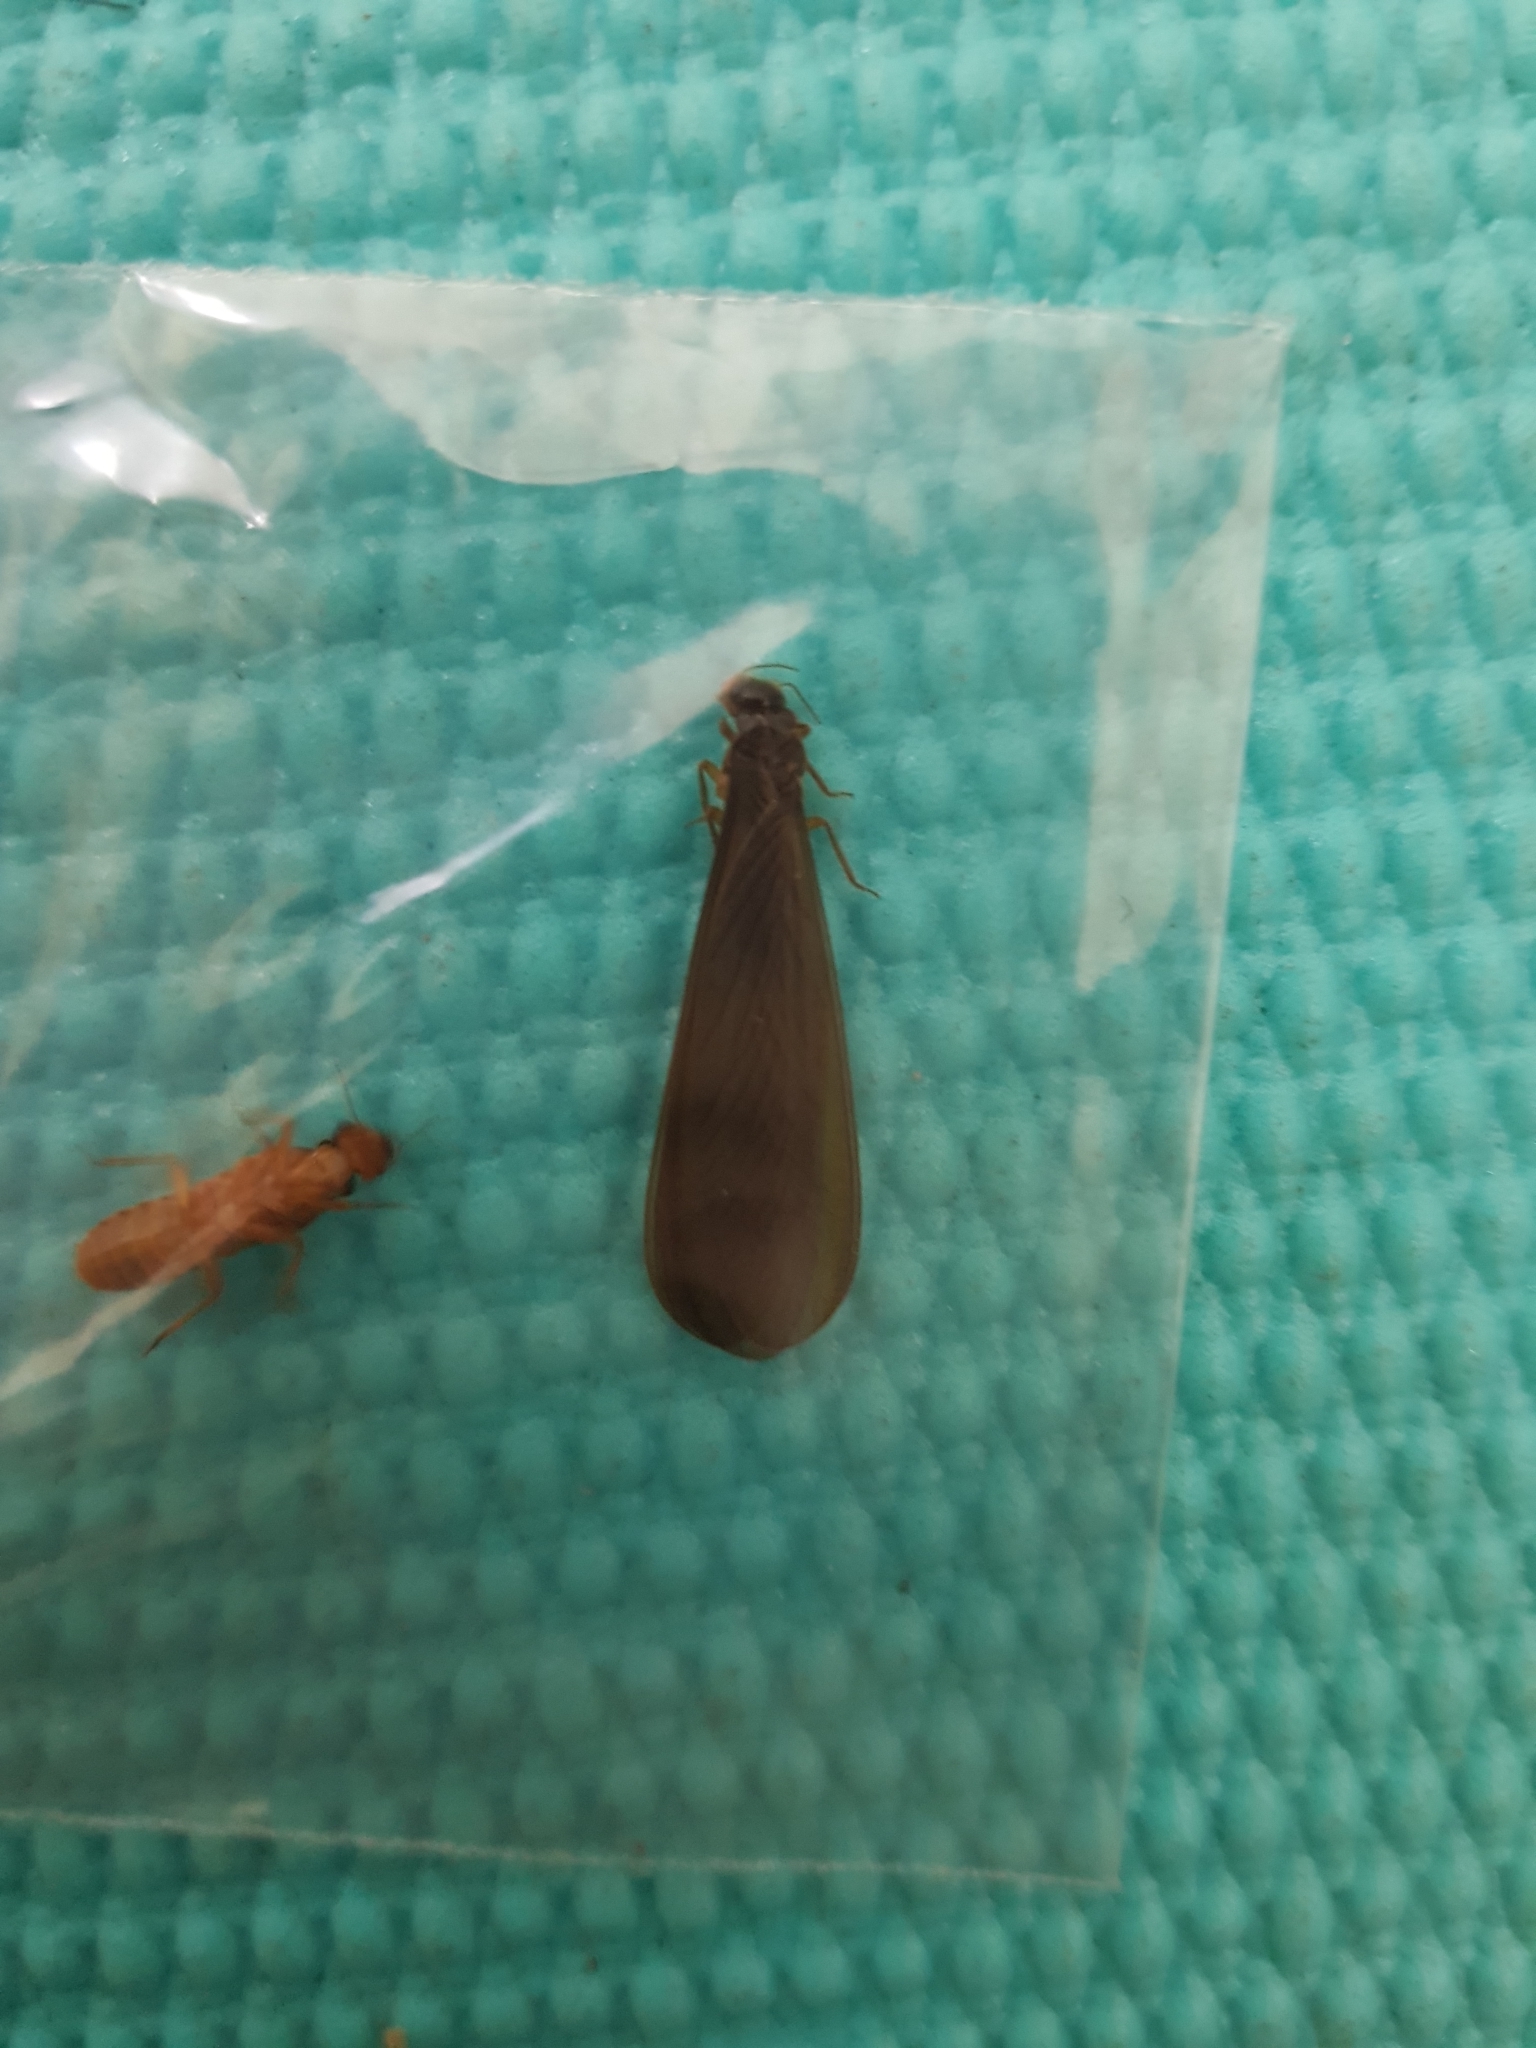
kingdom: Animalia
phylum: Arthropoda
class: Insecta
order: Blattodea
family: Termitidae
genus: Odontotermes
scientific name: Odontotermes formosanus
